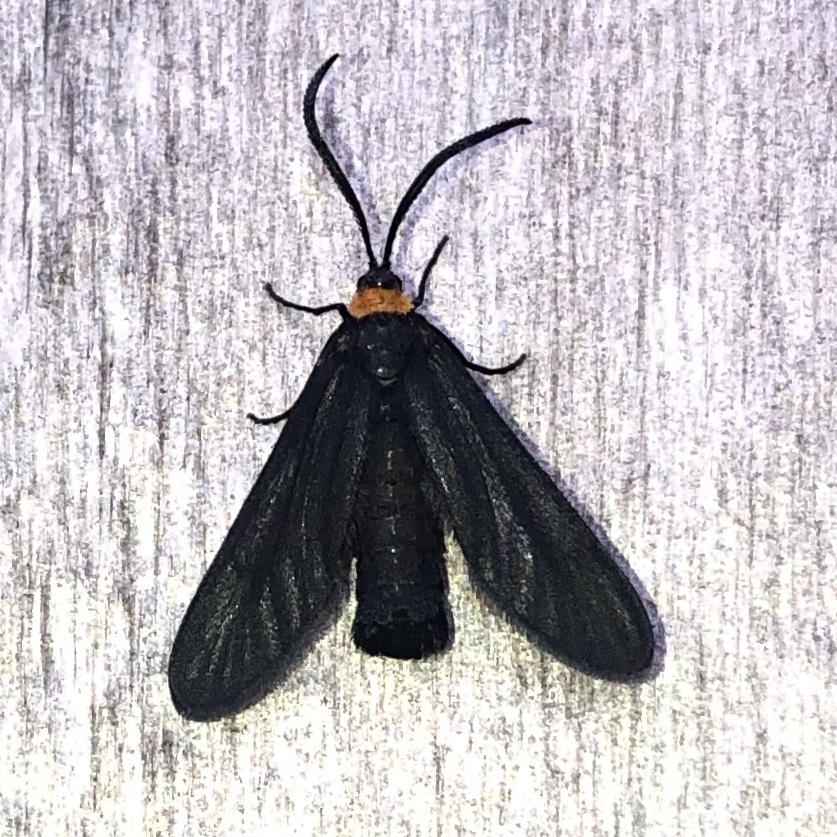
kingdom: Animalia
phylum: Arthropoda
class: Insecta
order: Lepidoptera
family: Zygaenidae
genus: Harrisina
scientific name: Harrisina americana
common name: Grapeleaf skeletonizer moth
